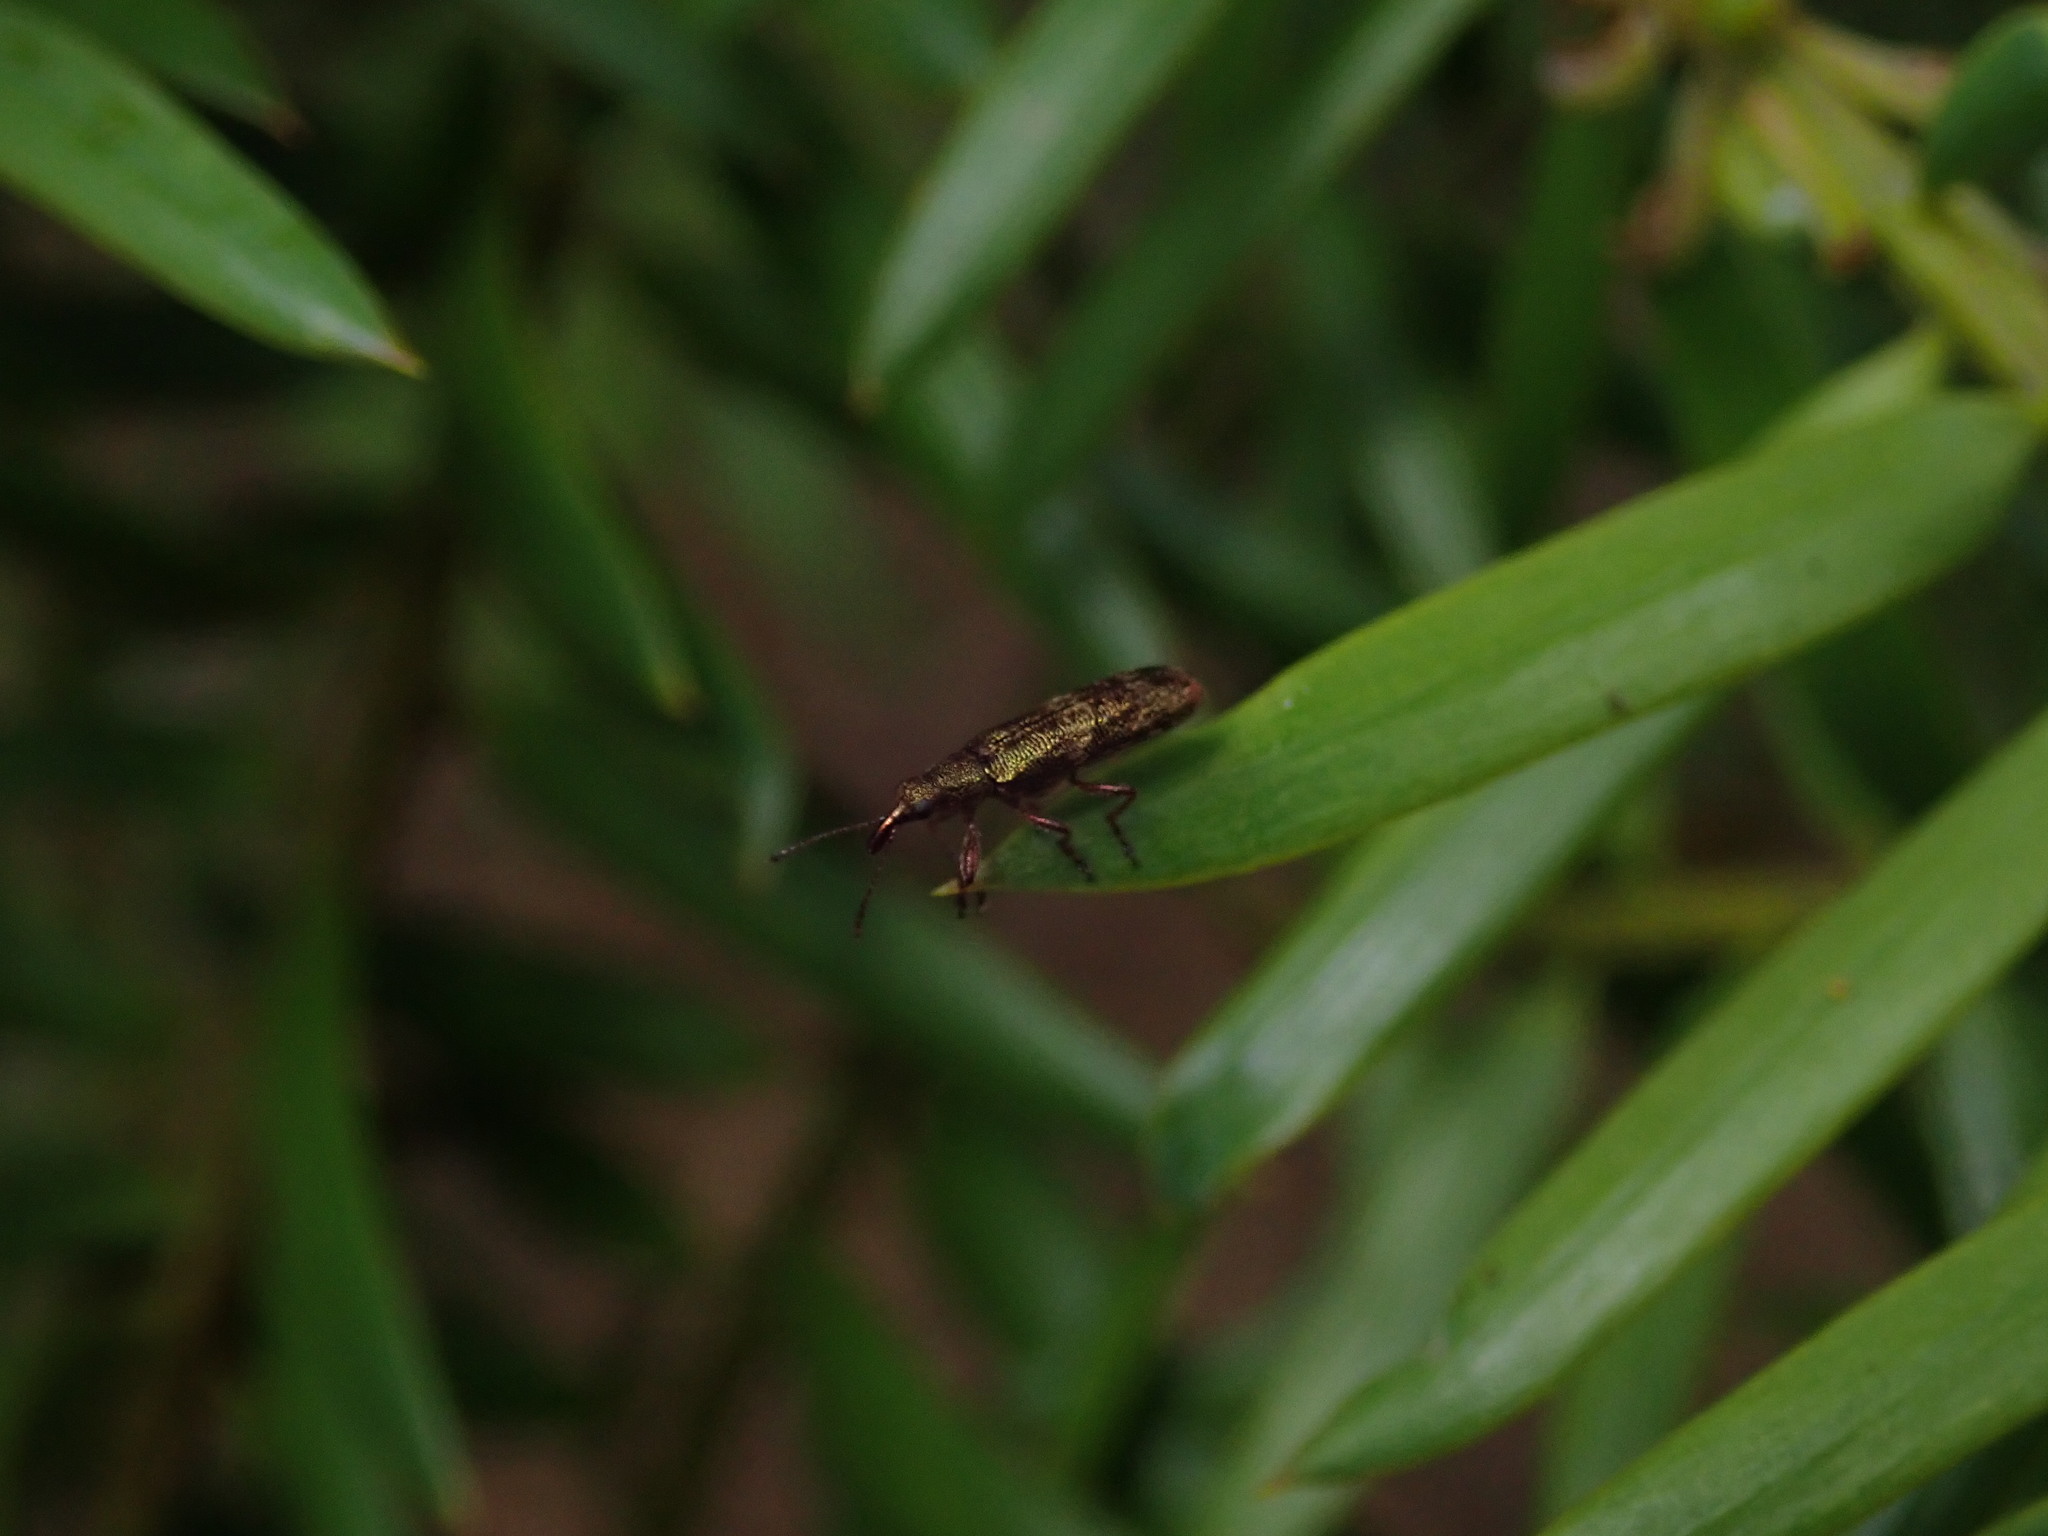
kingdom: Animalia
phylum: Arthropoda
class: Insecta
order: Coleoptera
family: Belidae
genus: Rhicnobelus
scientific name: Rhicnobelus
